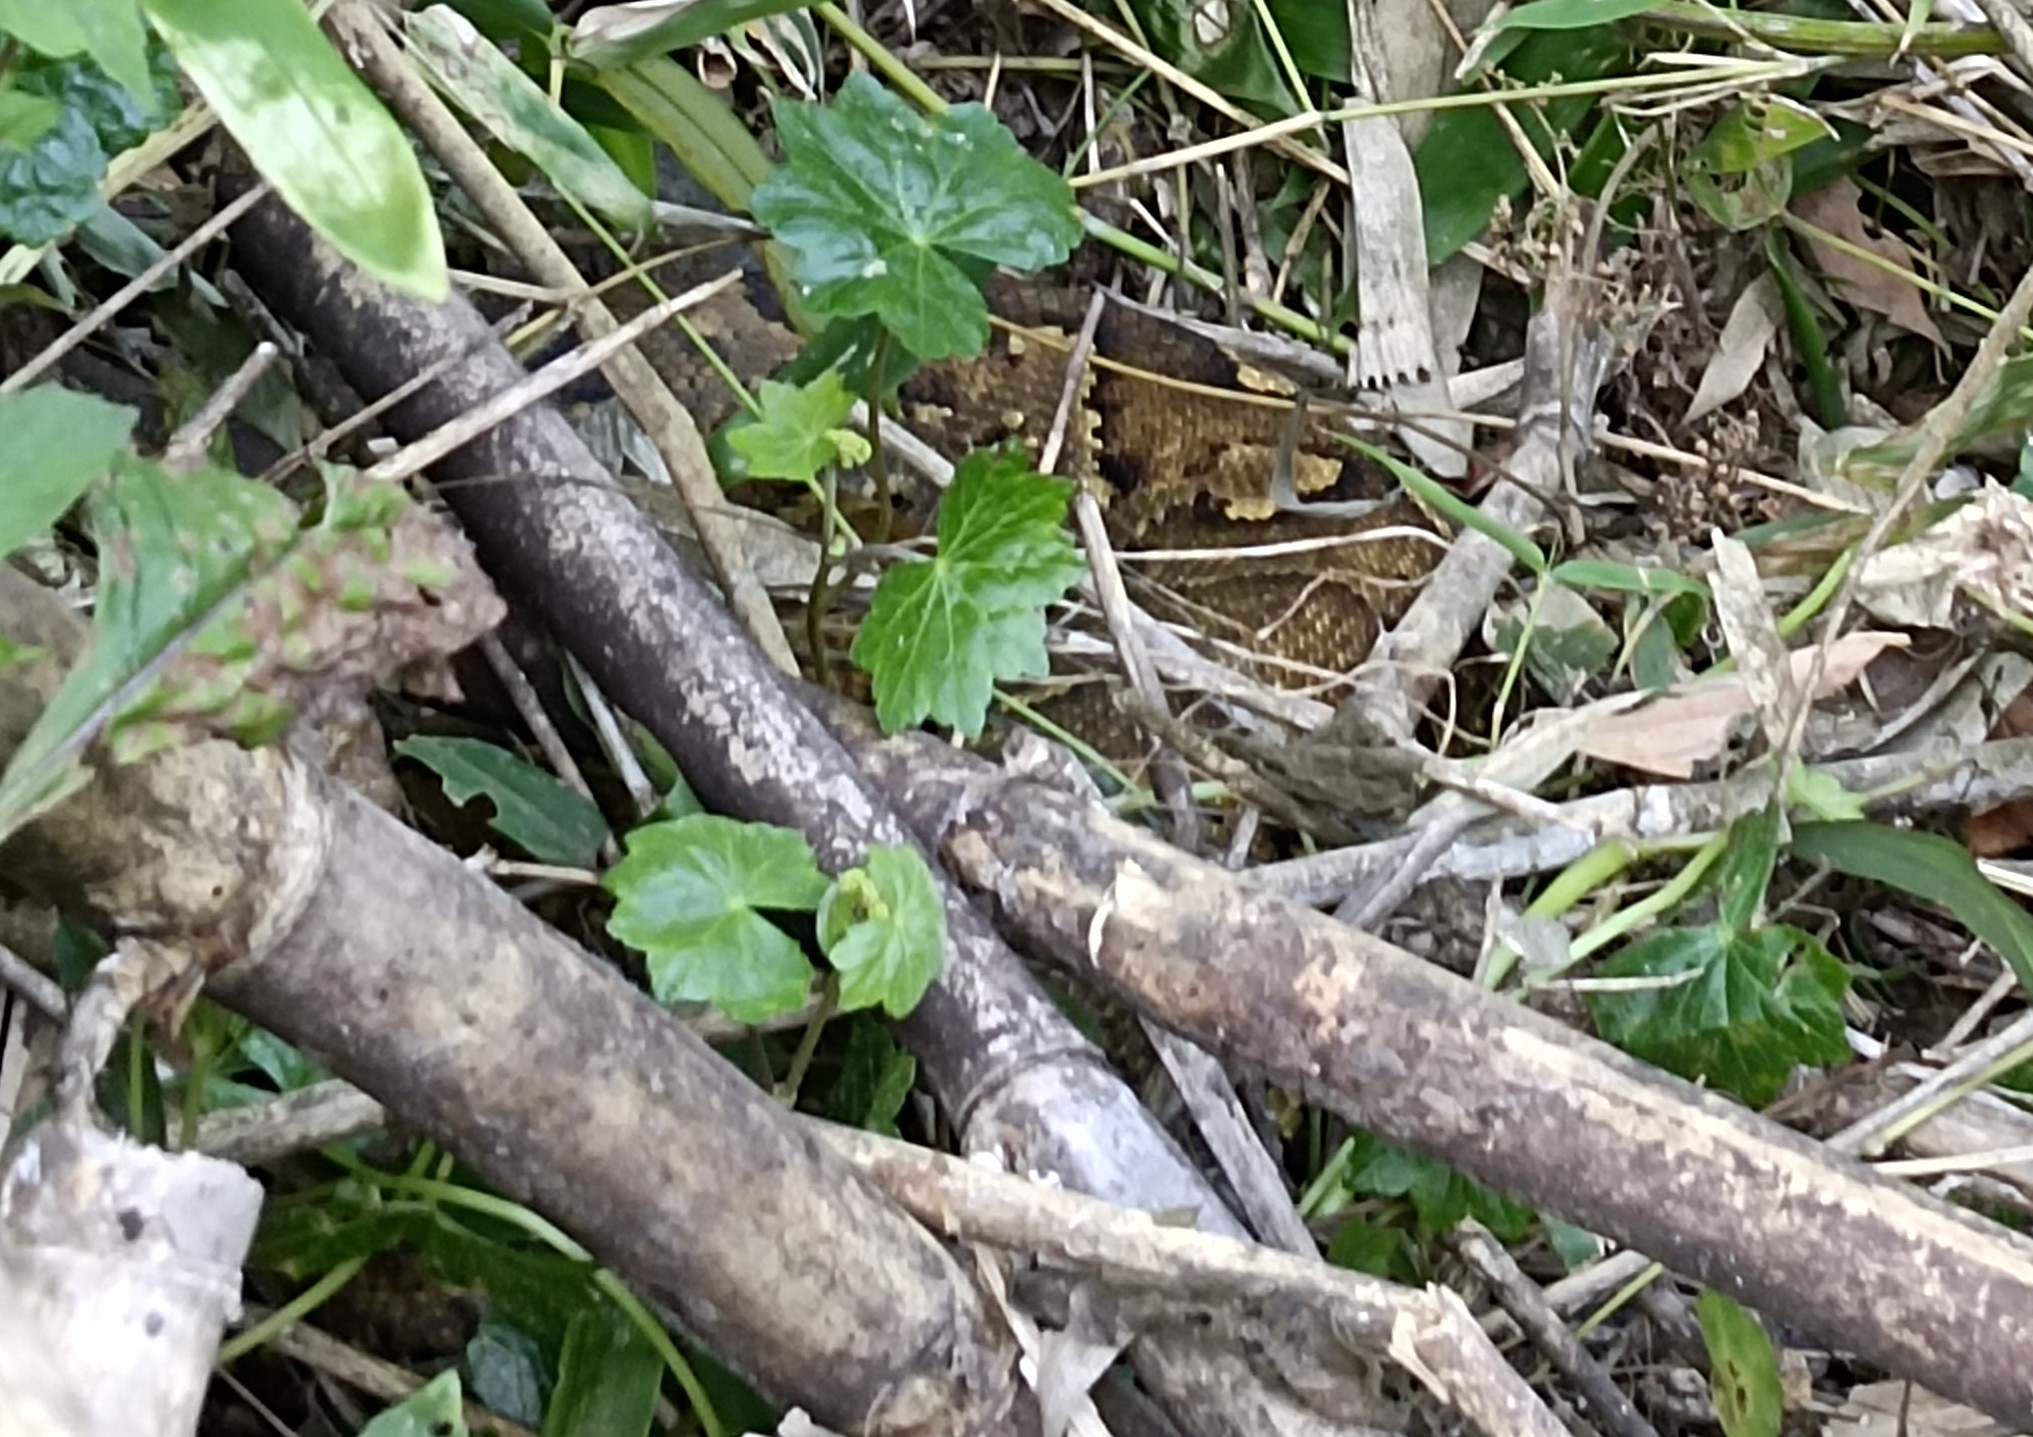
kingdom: Animalia
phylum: Chordata
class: Squamata
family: Pythonidae
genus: Python
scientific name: Python molurus
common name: Indian rock python
